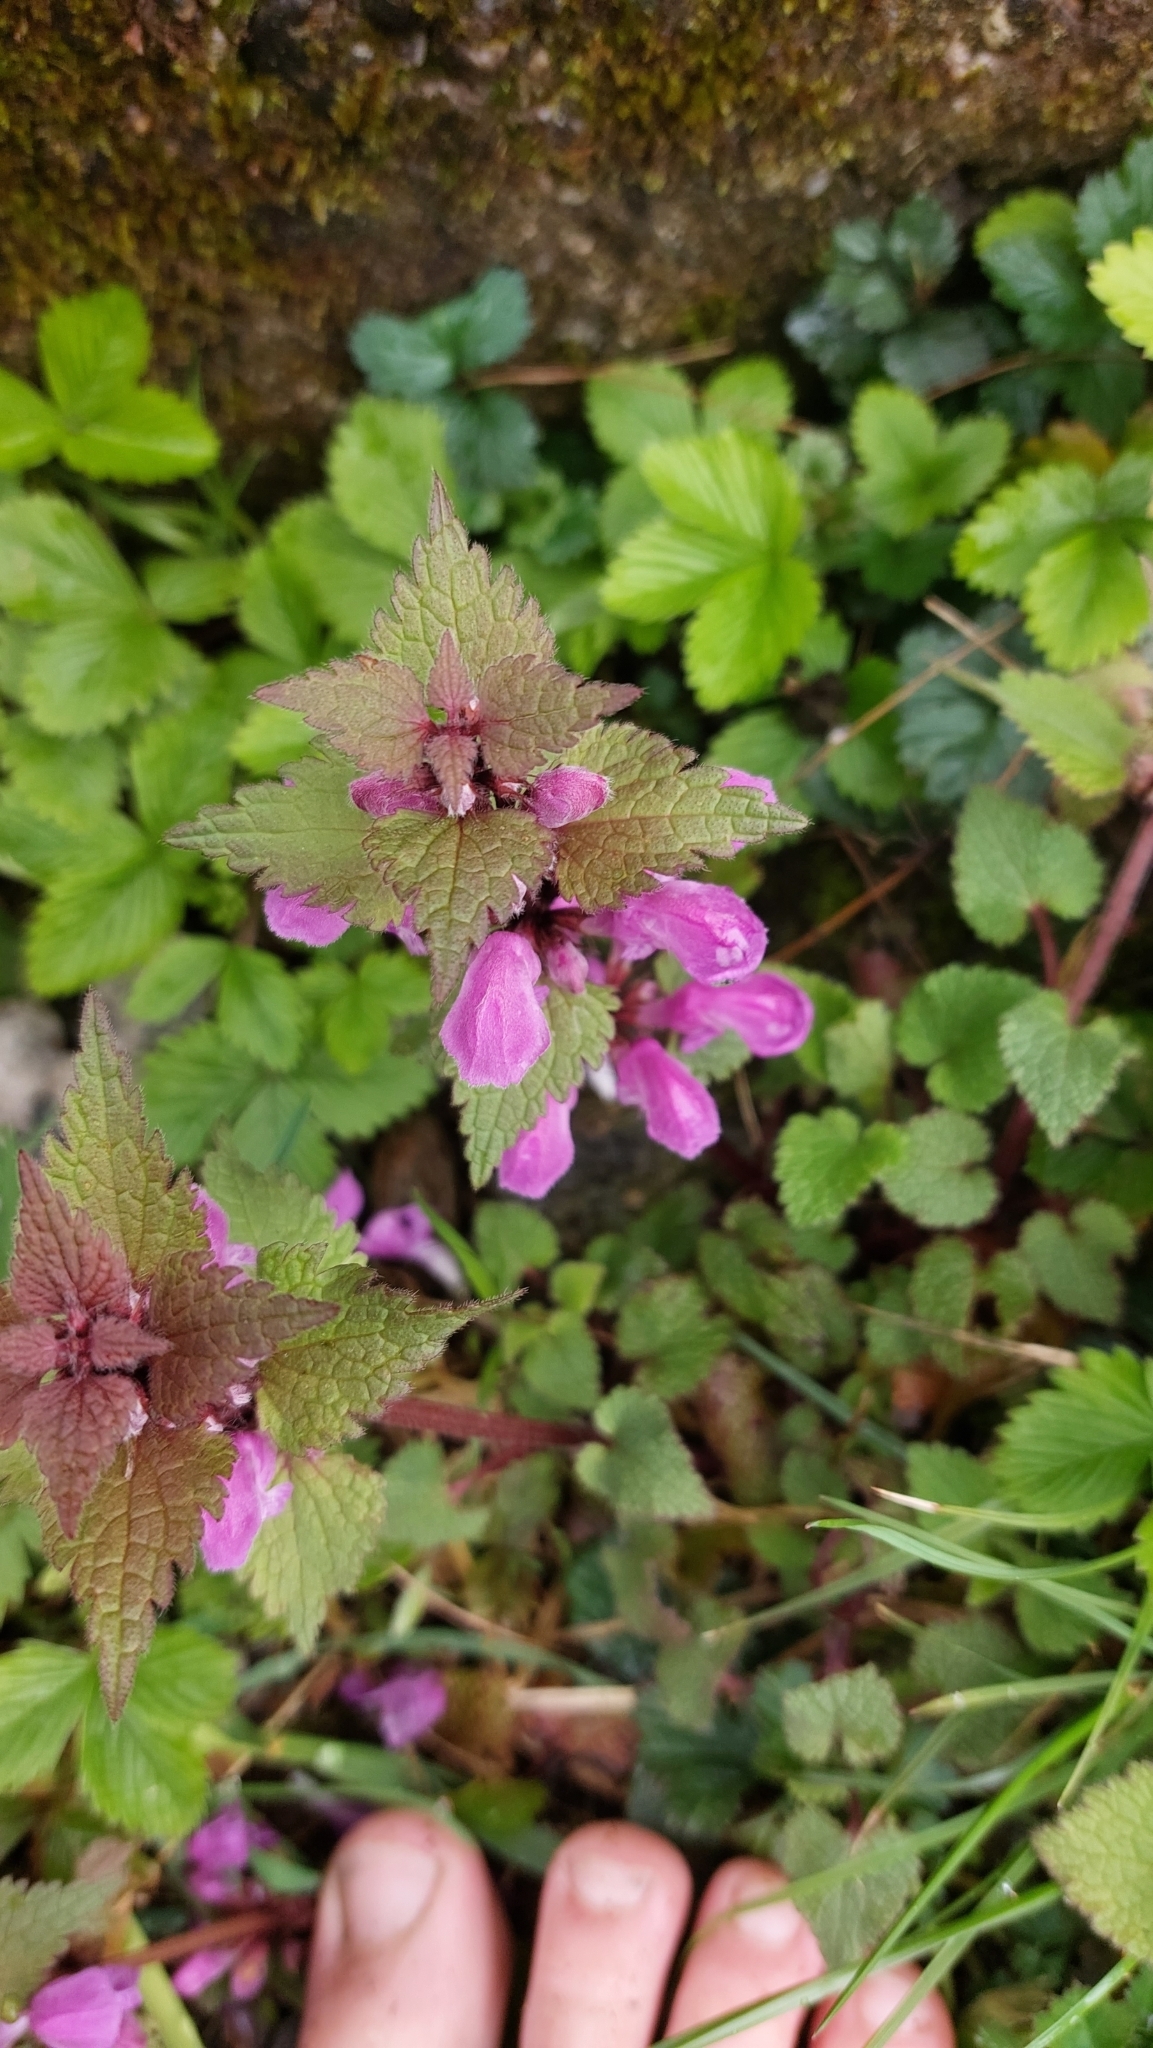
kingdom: Plantae
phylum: Tracheophyta
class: Magnoliopsida
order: Lamiales
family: Lamiaceae
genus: Lamium
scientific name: Lamium maculatum
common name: Spotted dead-nettle
